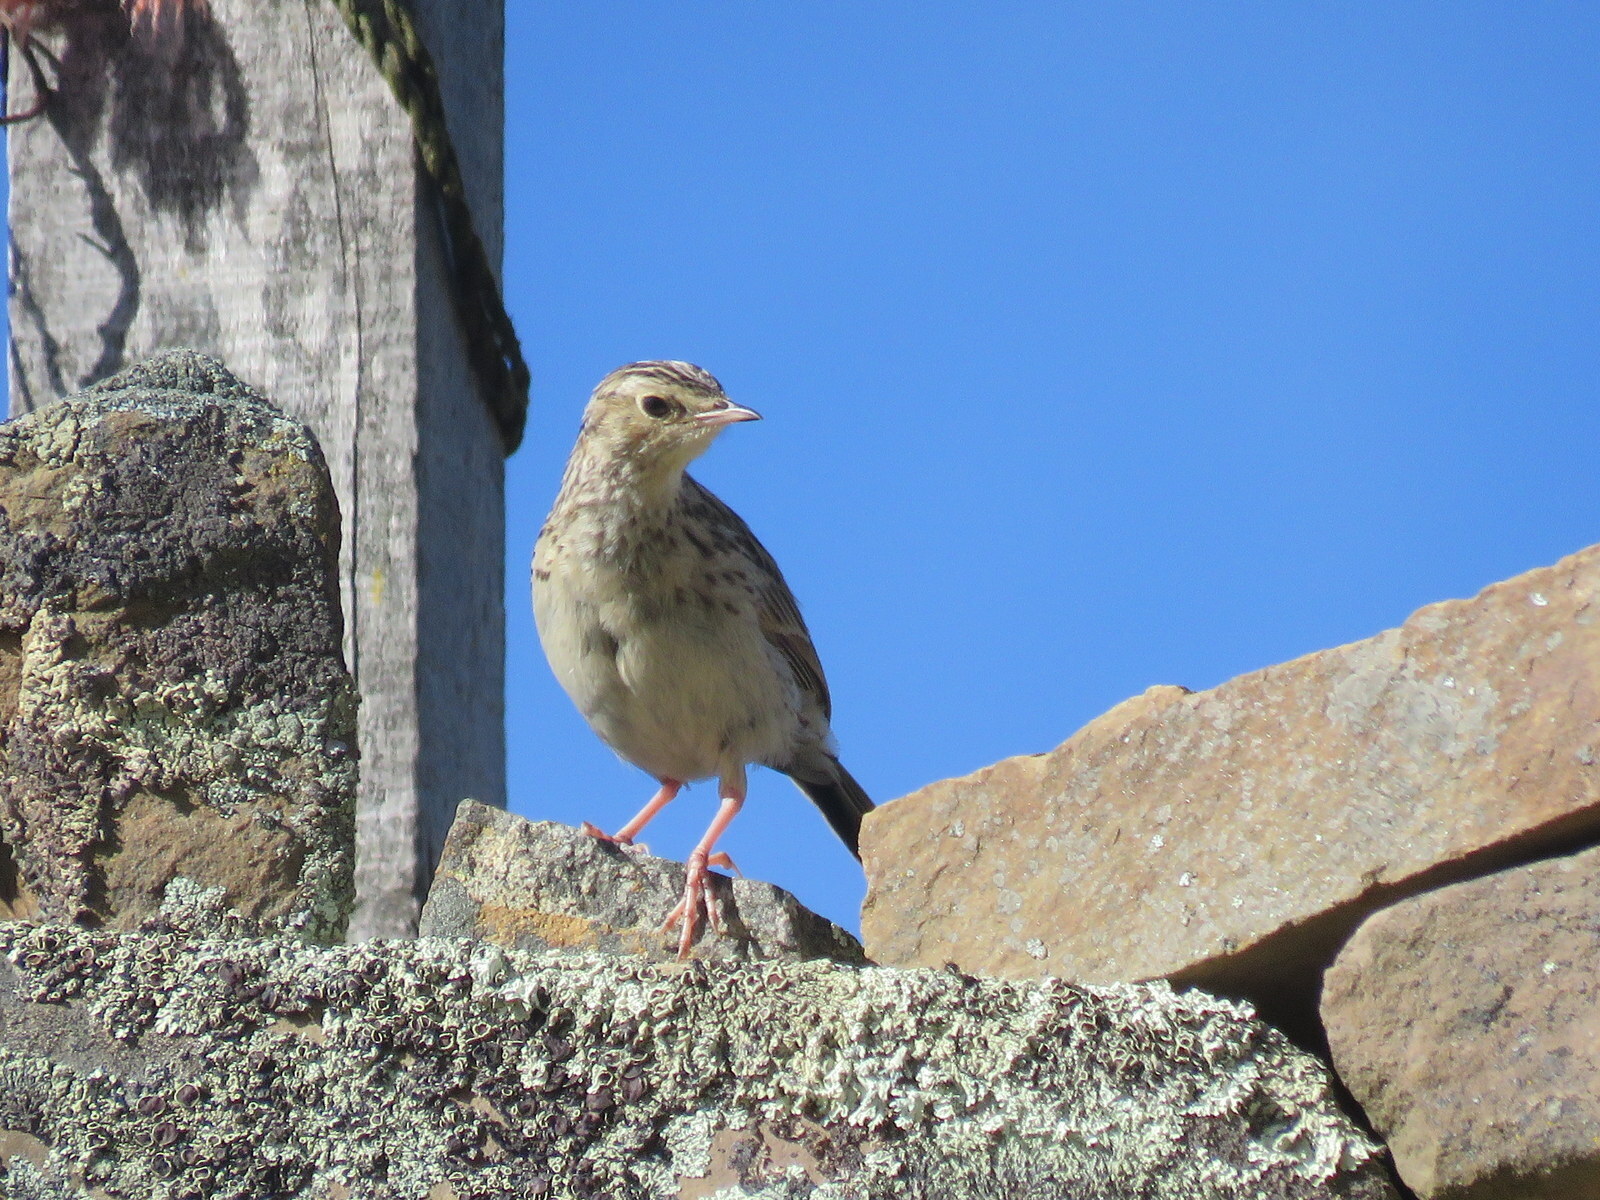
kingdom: Animalia
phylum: Chordata
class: Aves
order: Passeriformes
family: Motacillidae
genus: Anthus
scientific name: Anthus bogotensis
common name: Paramo pipit
